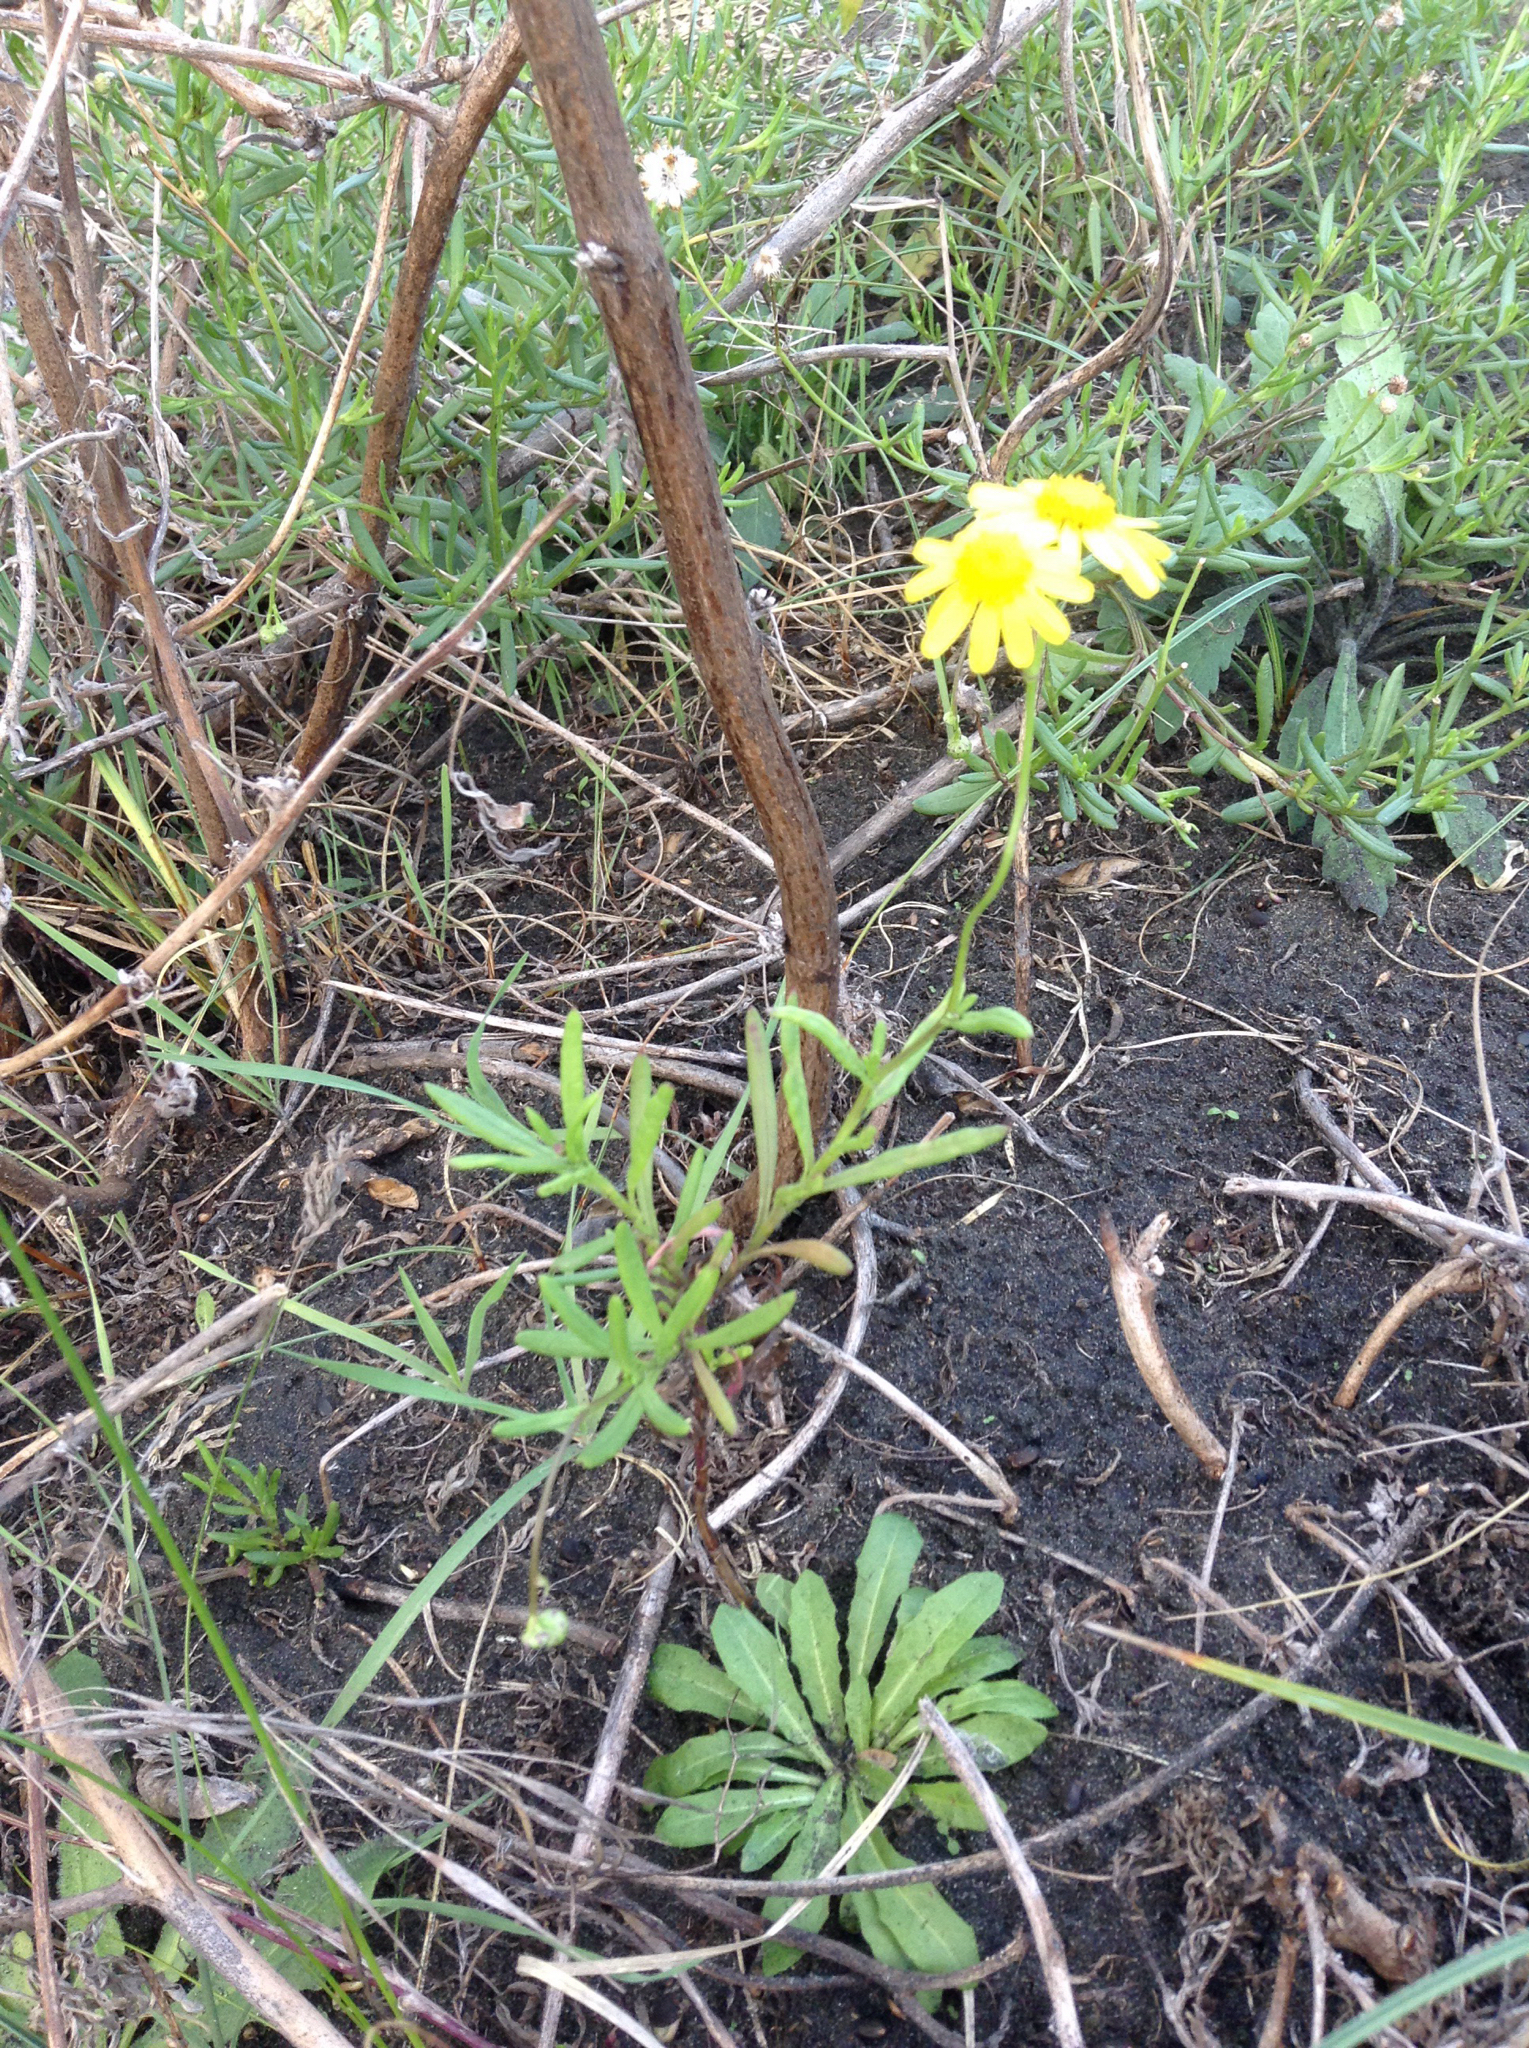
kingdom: Plantae
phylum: Tracheophyta
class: Magnoliopsida
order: Asterales
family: Asteraceae
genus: Senecio
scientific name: Senecio skirrhodon
